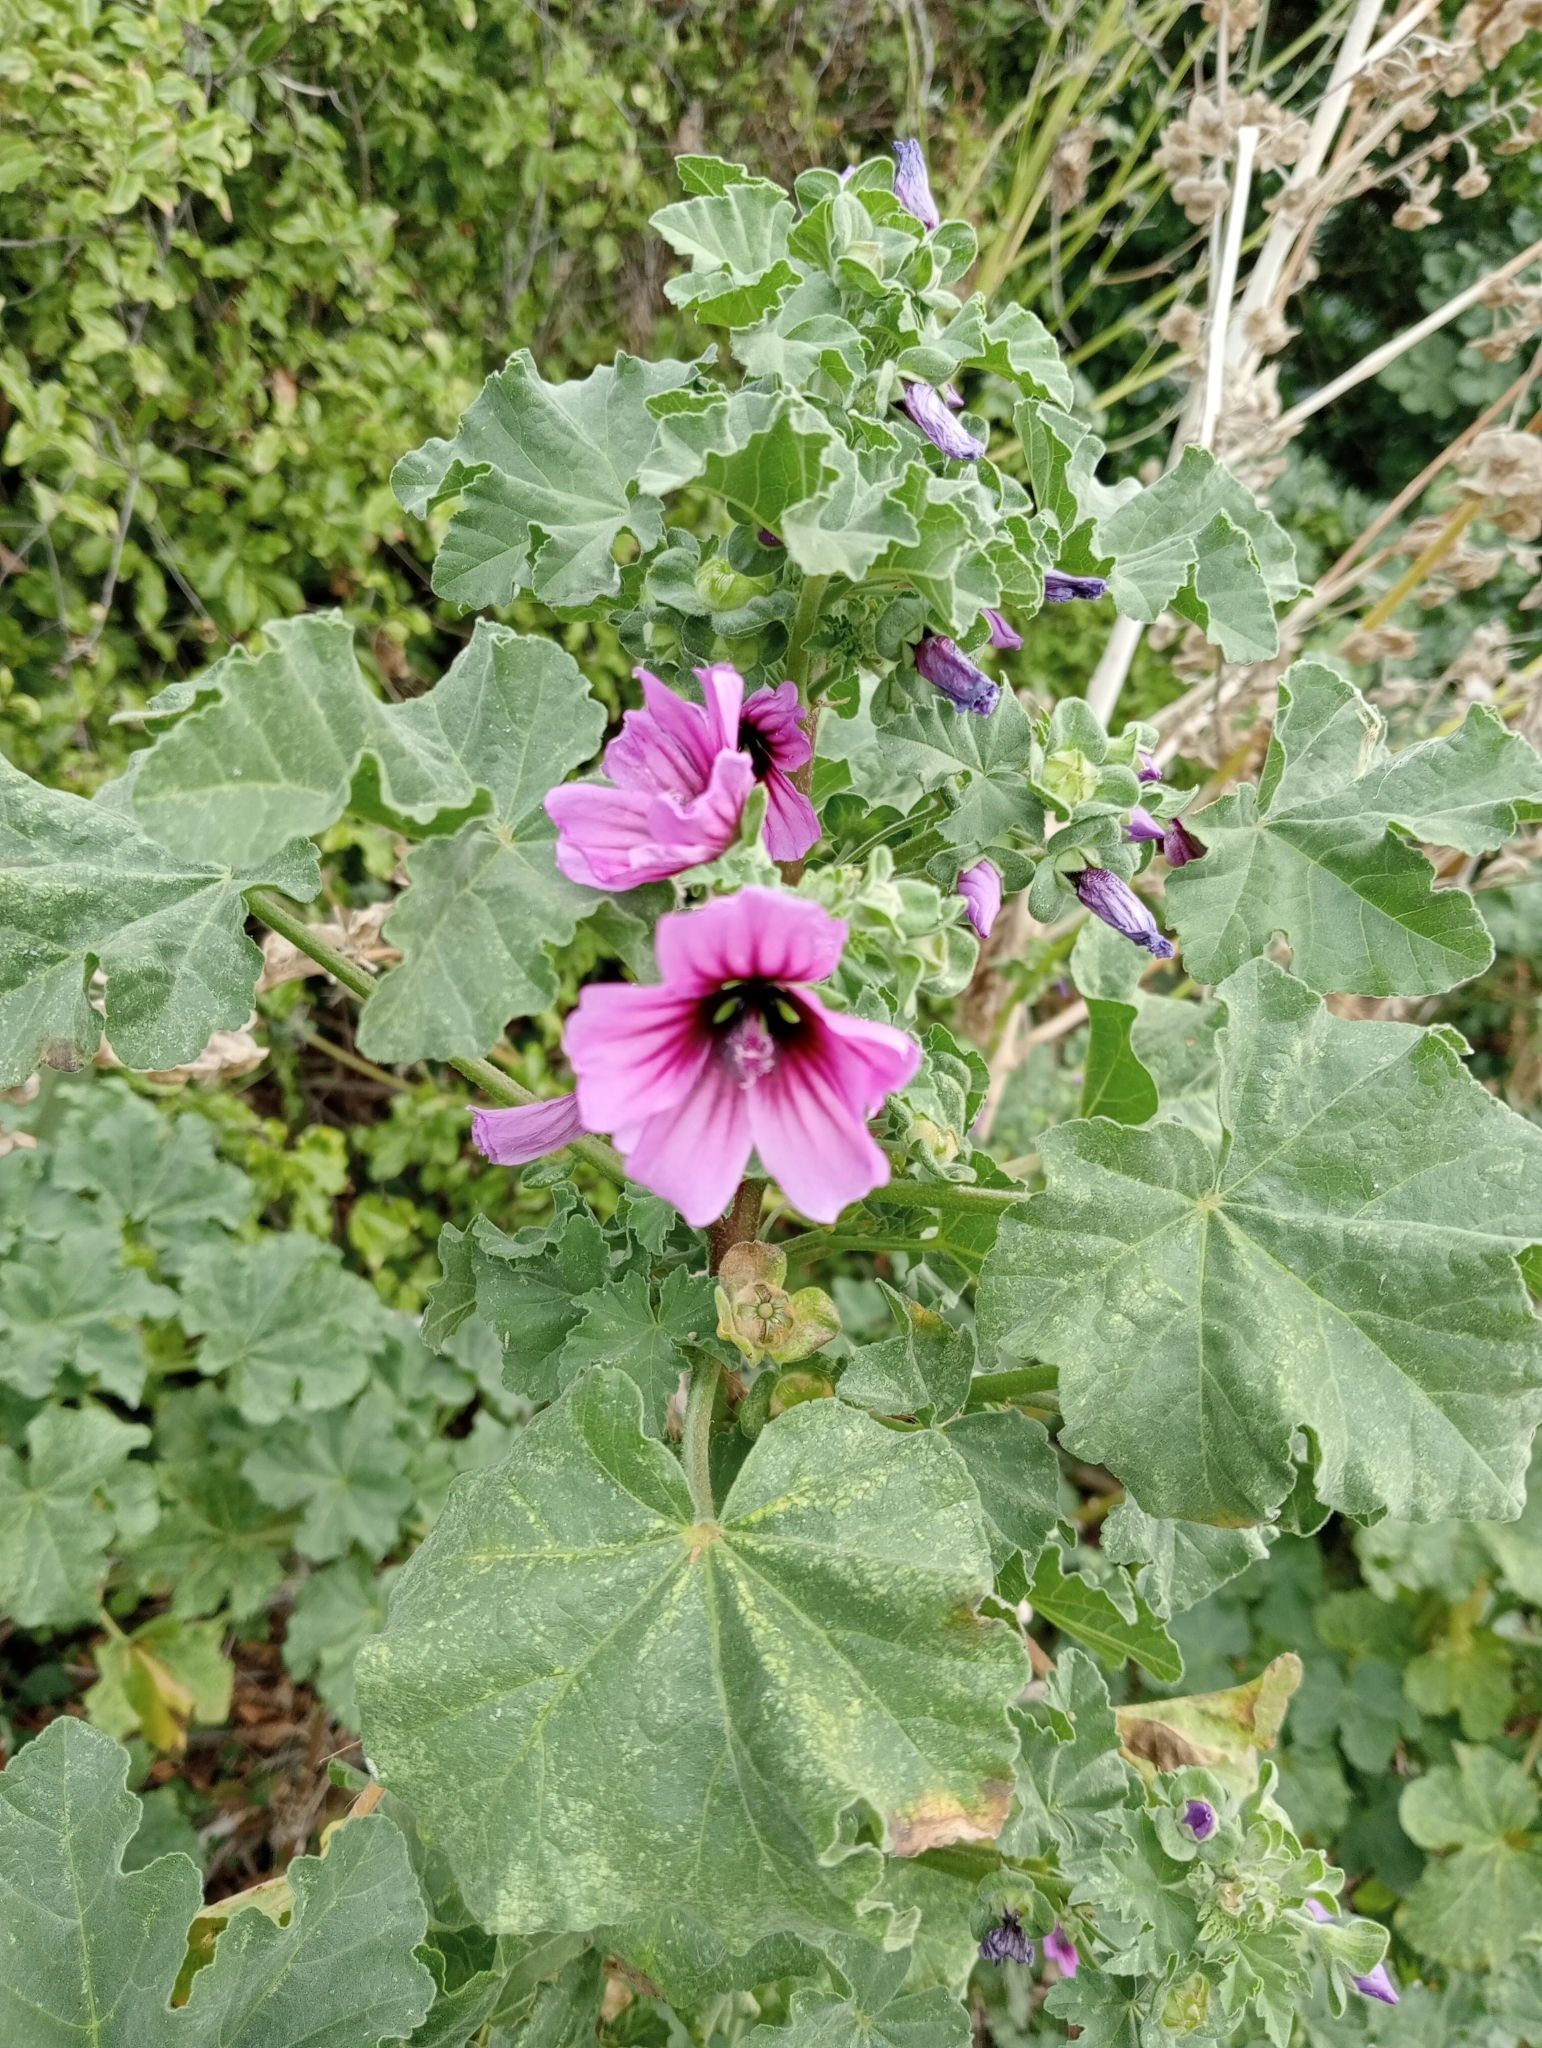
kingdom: Plantae
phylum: Tracheophyta
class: Magnoliopsida
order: Malvales
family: Malvaceae
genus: Malva
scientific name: Malva arborea
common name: Tree mallow
